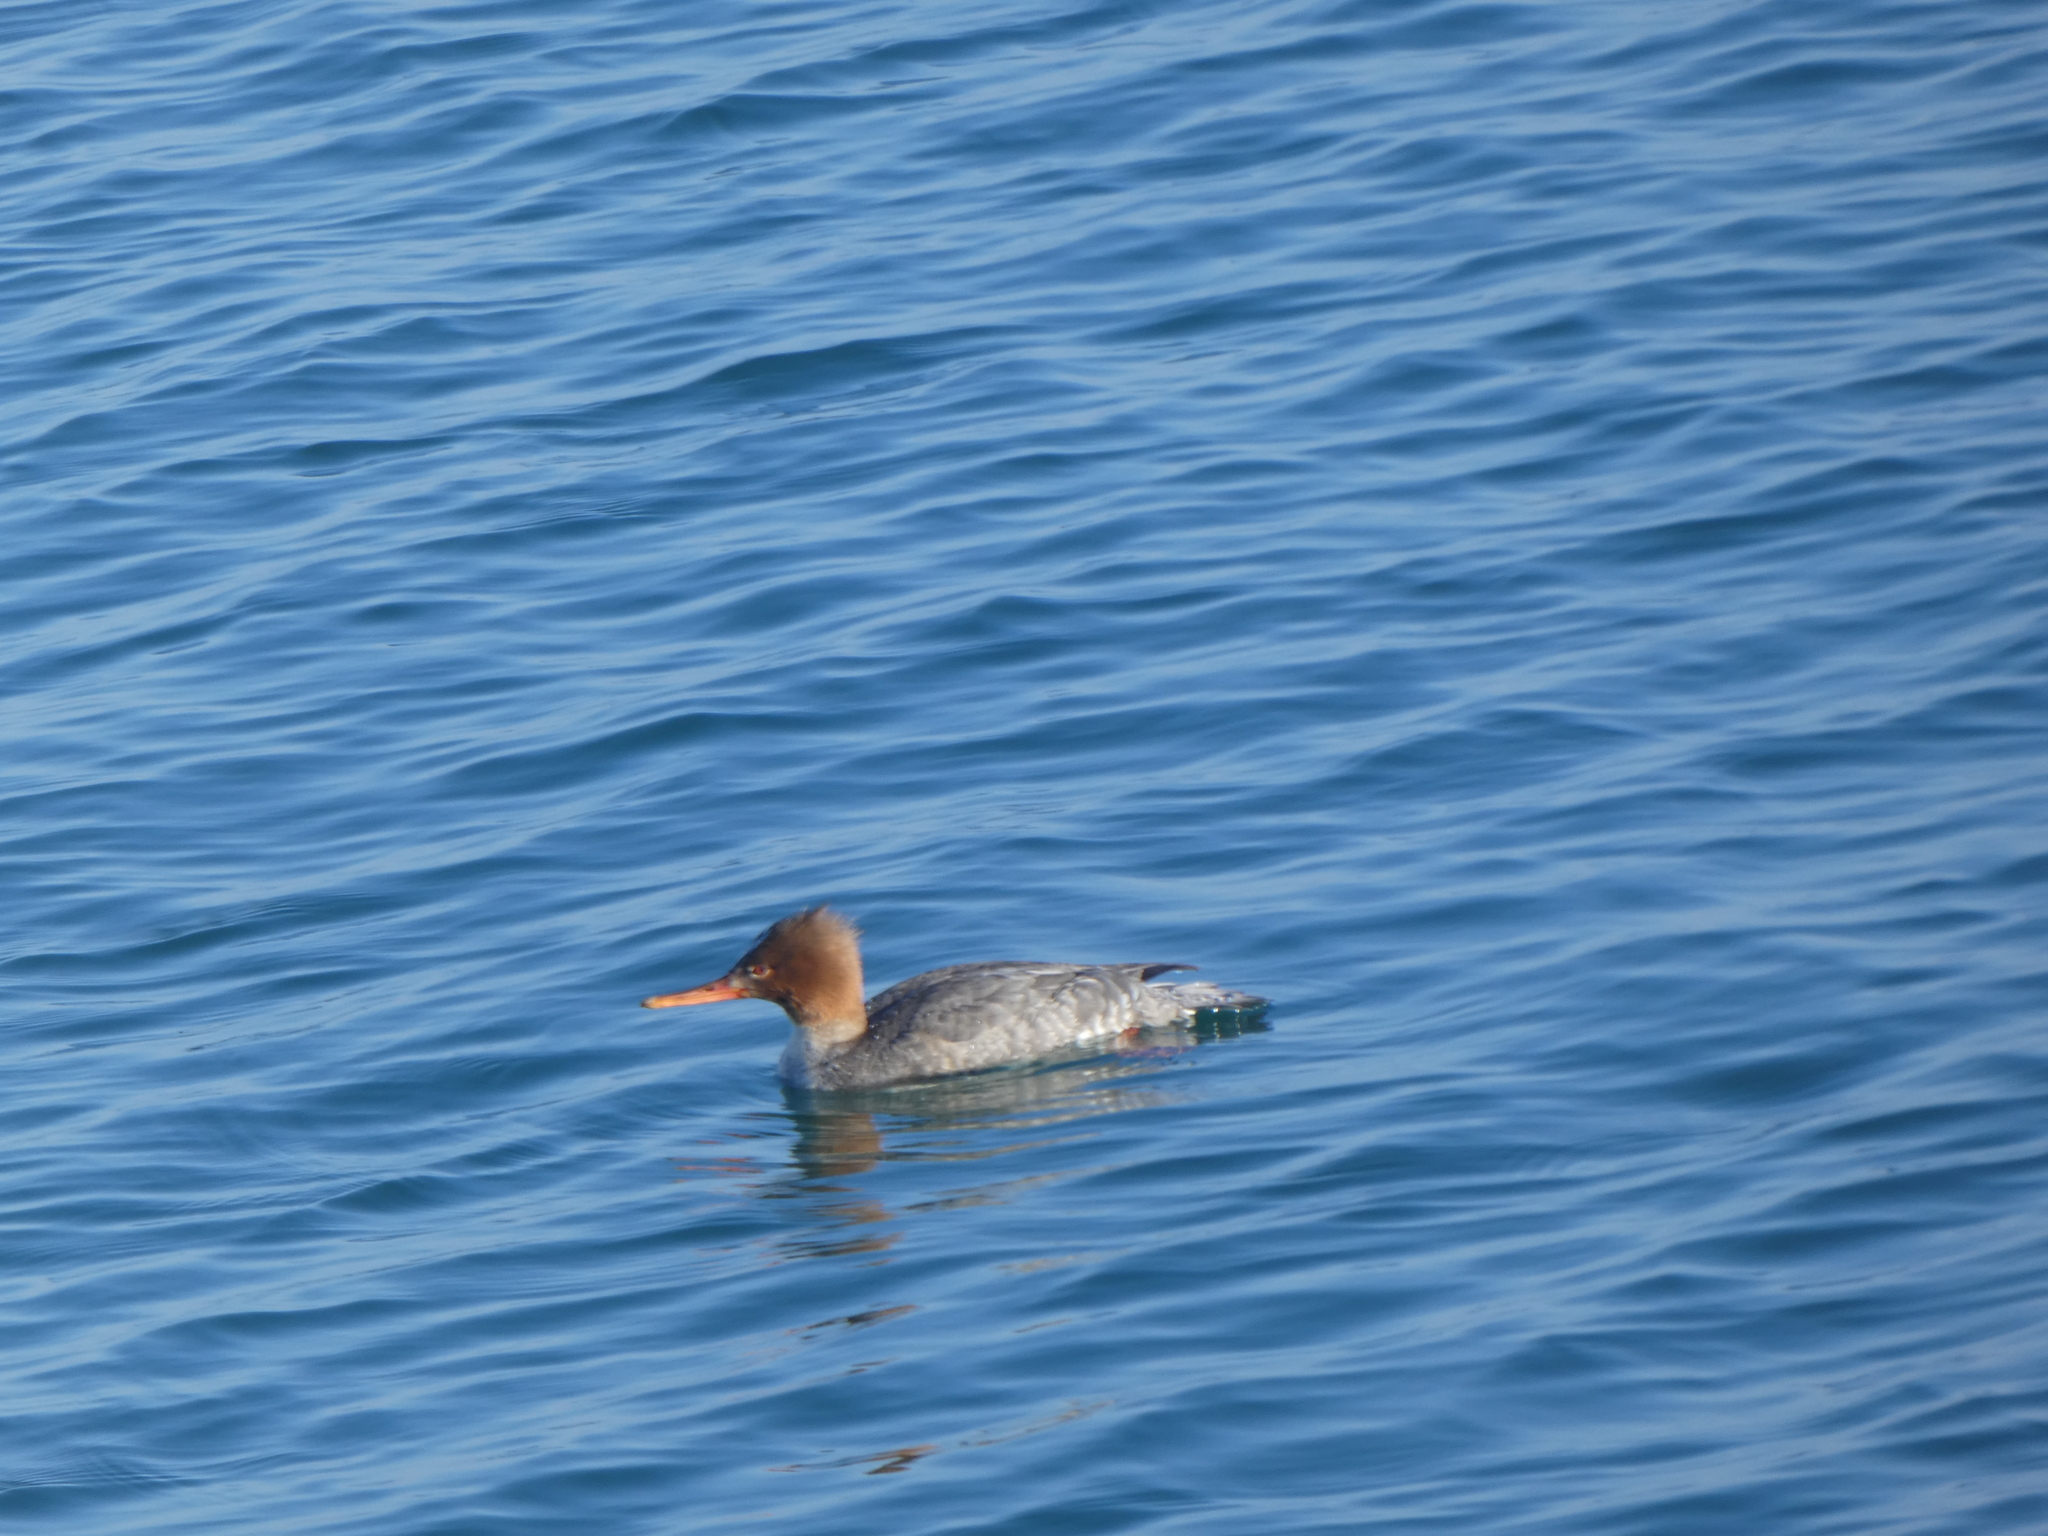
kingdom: Animalia
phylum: Chordata
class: Aves
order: Anseriformes
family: Anatidae
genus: Mergus
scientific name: Mergus serrator
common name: Red-breasted merganser
